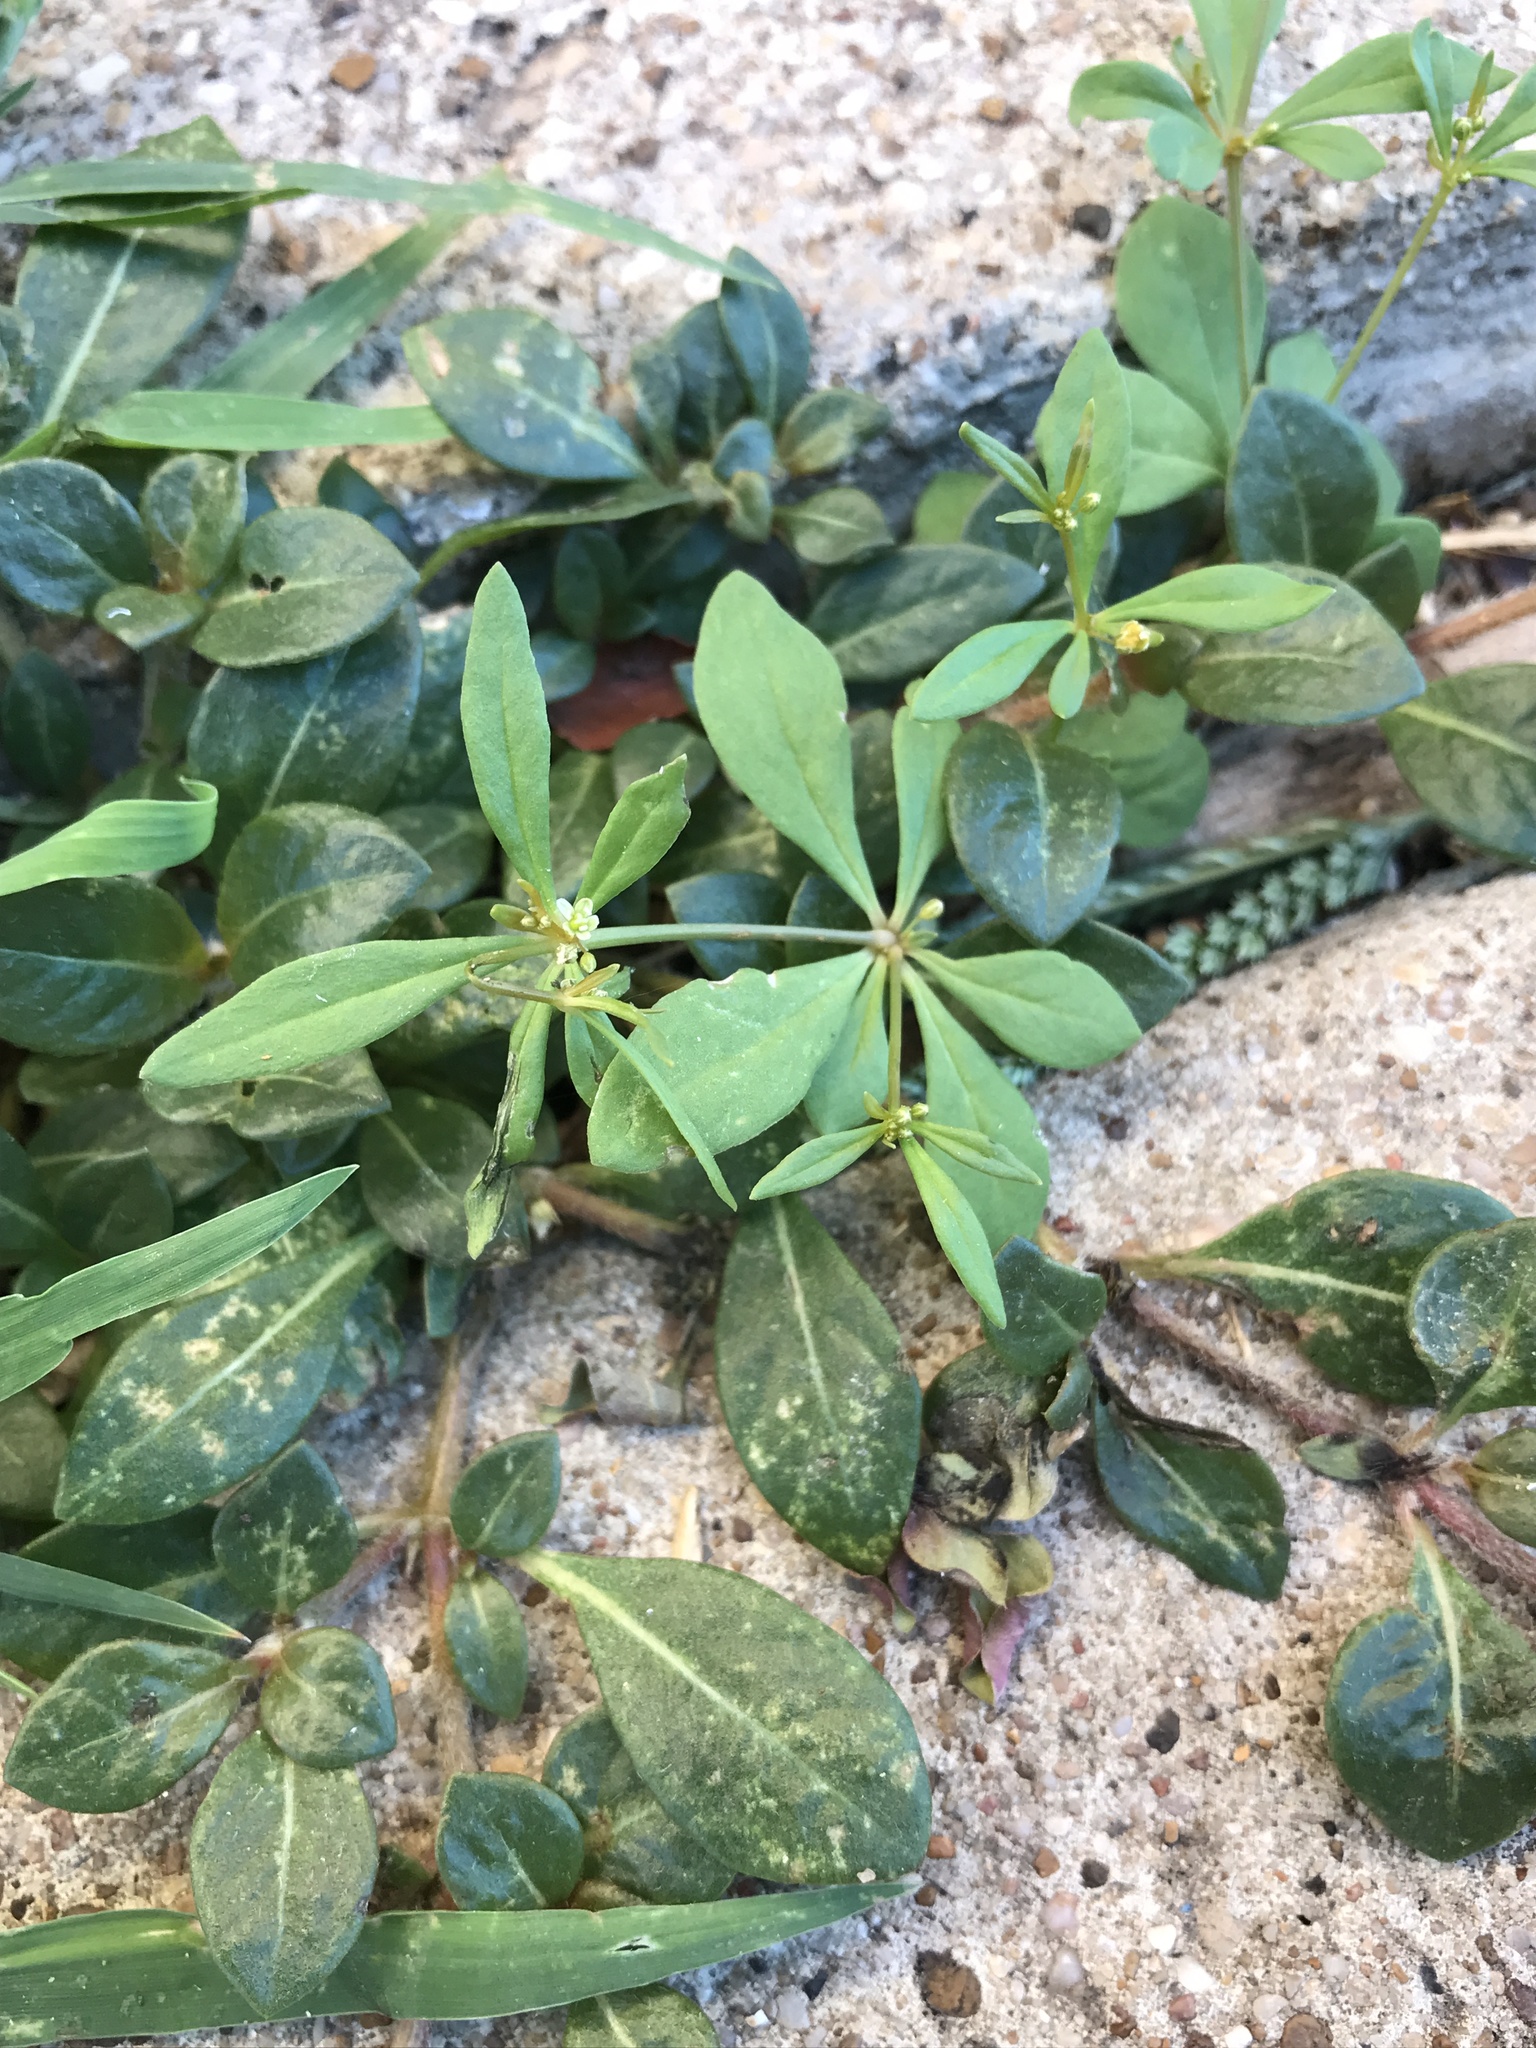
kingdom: Plantae
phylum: Tracheophyta
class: Magnoliopsida
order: Caryophyllales
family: Molluginaceae
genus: Mollugo
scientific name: Mollugo verticillata
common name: Green carpetweed
